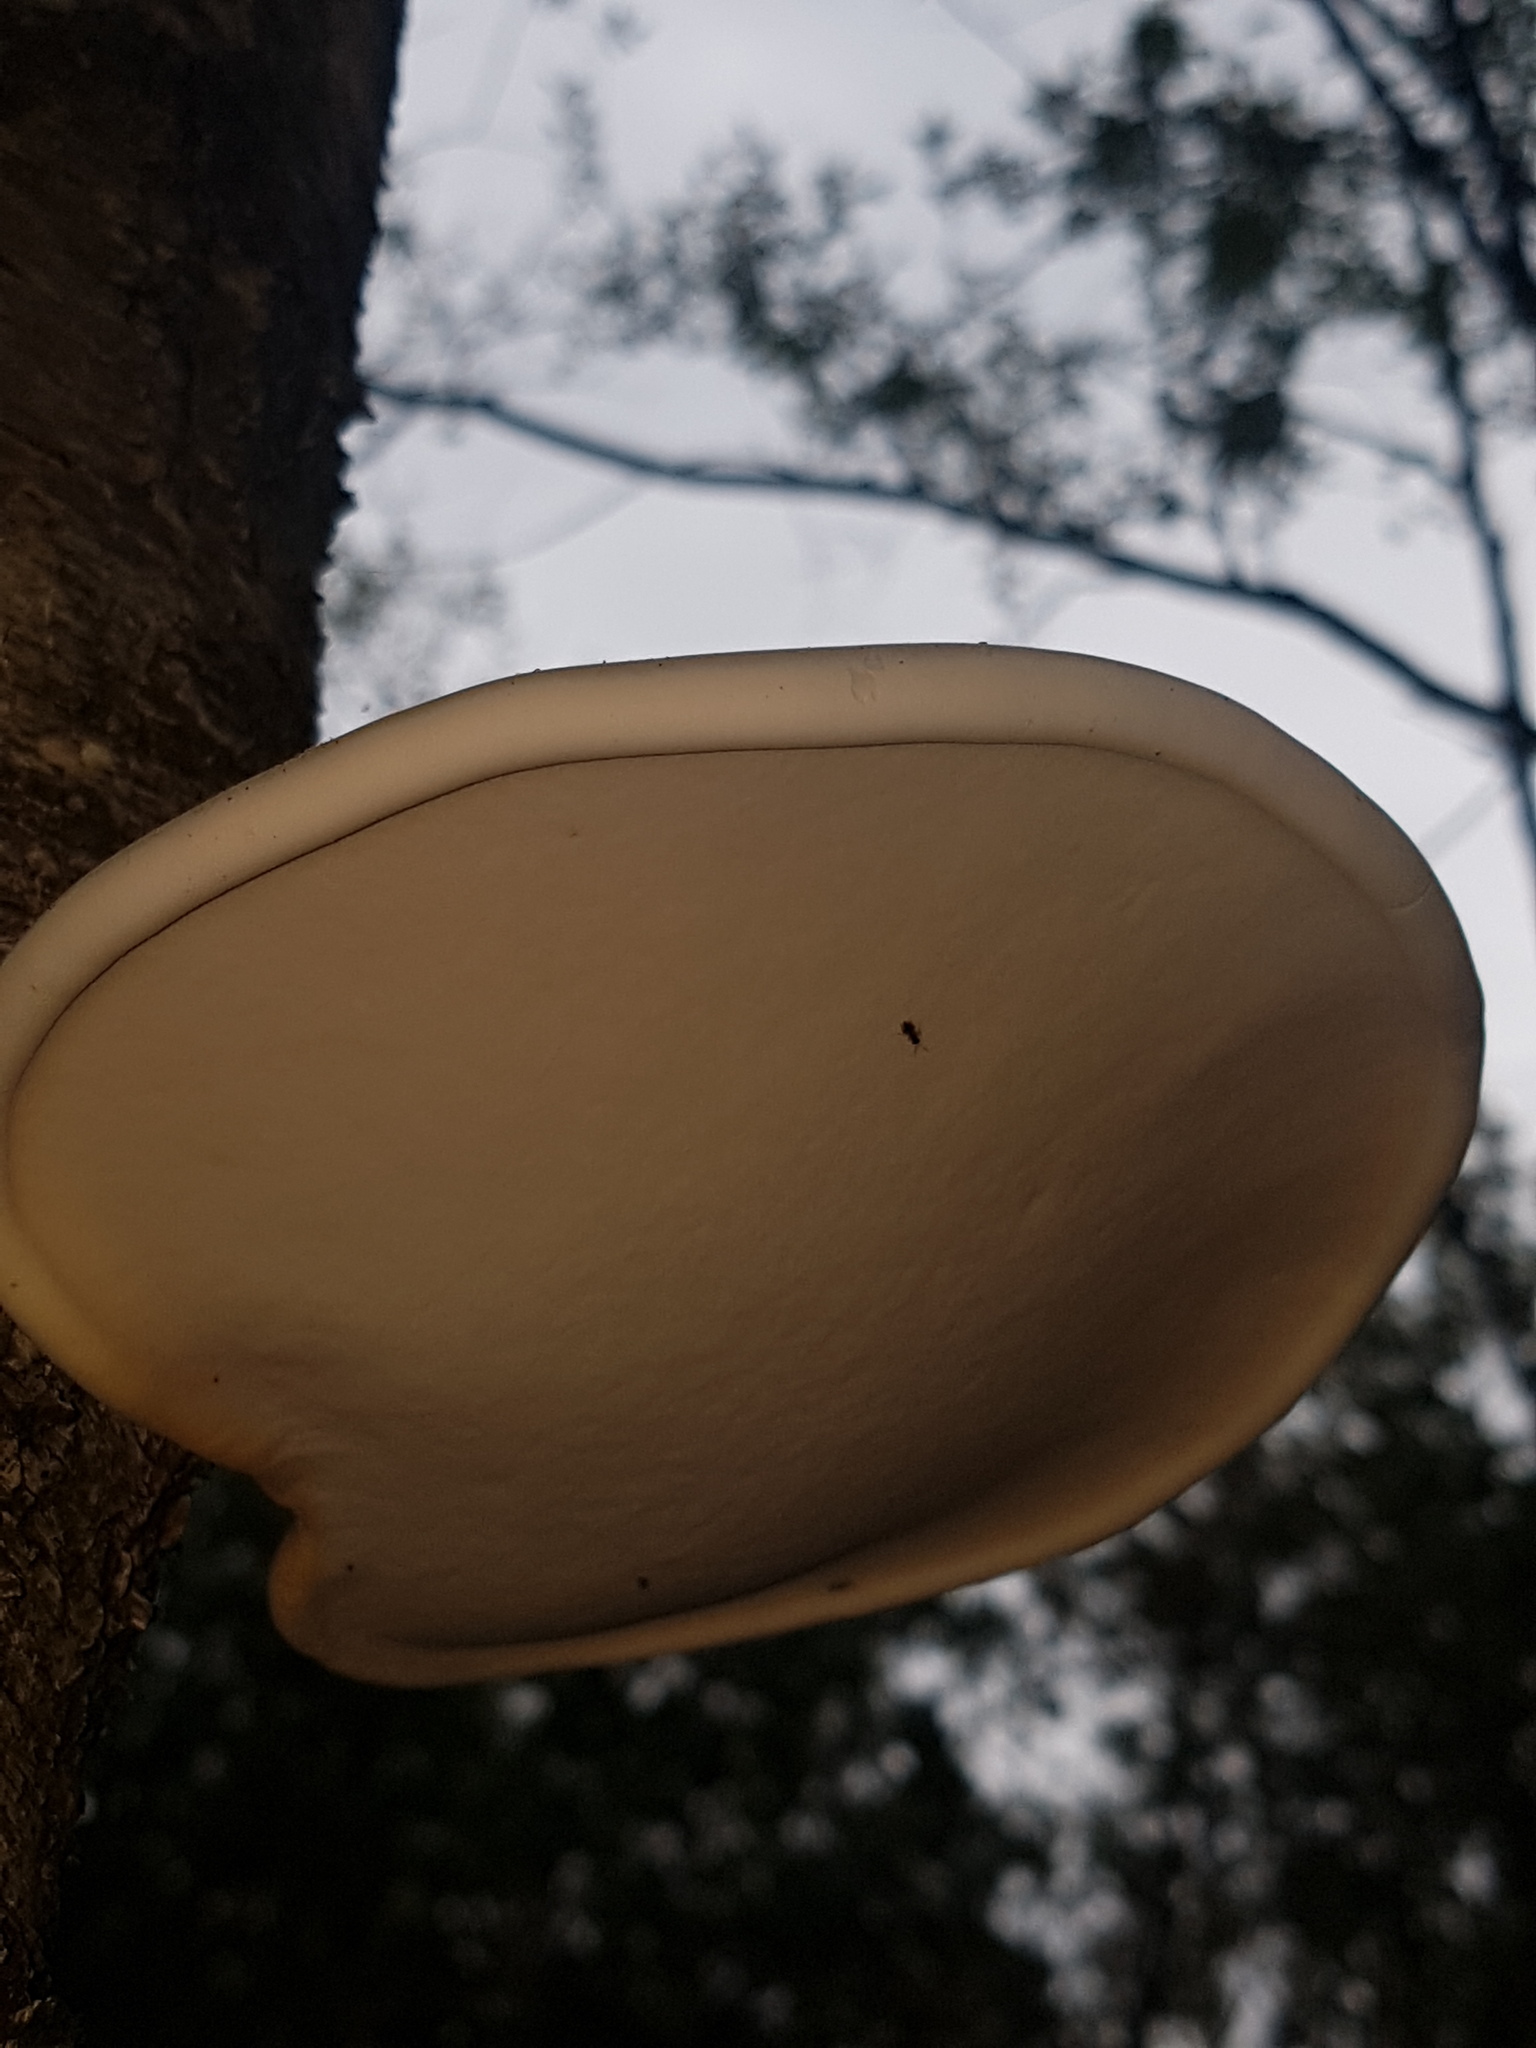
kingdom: Fungi
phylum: Basidiomycota
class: Agaricomycetes
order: Polyporales
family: Fomitopsidaceae
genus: Fomitopsis
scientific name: Fomitopsis betulina
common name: Birch polypore
